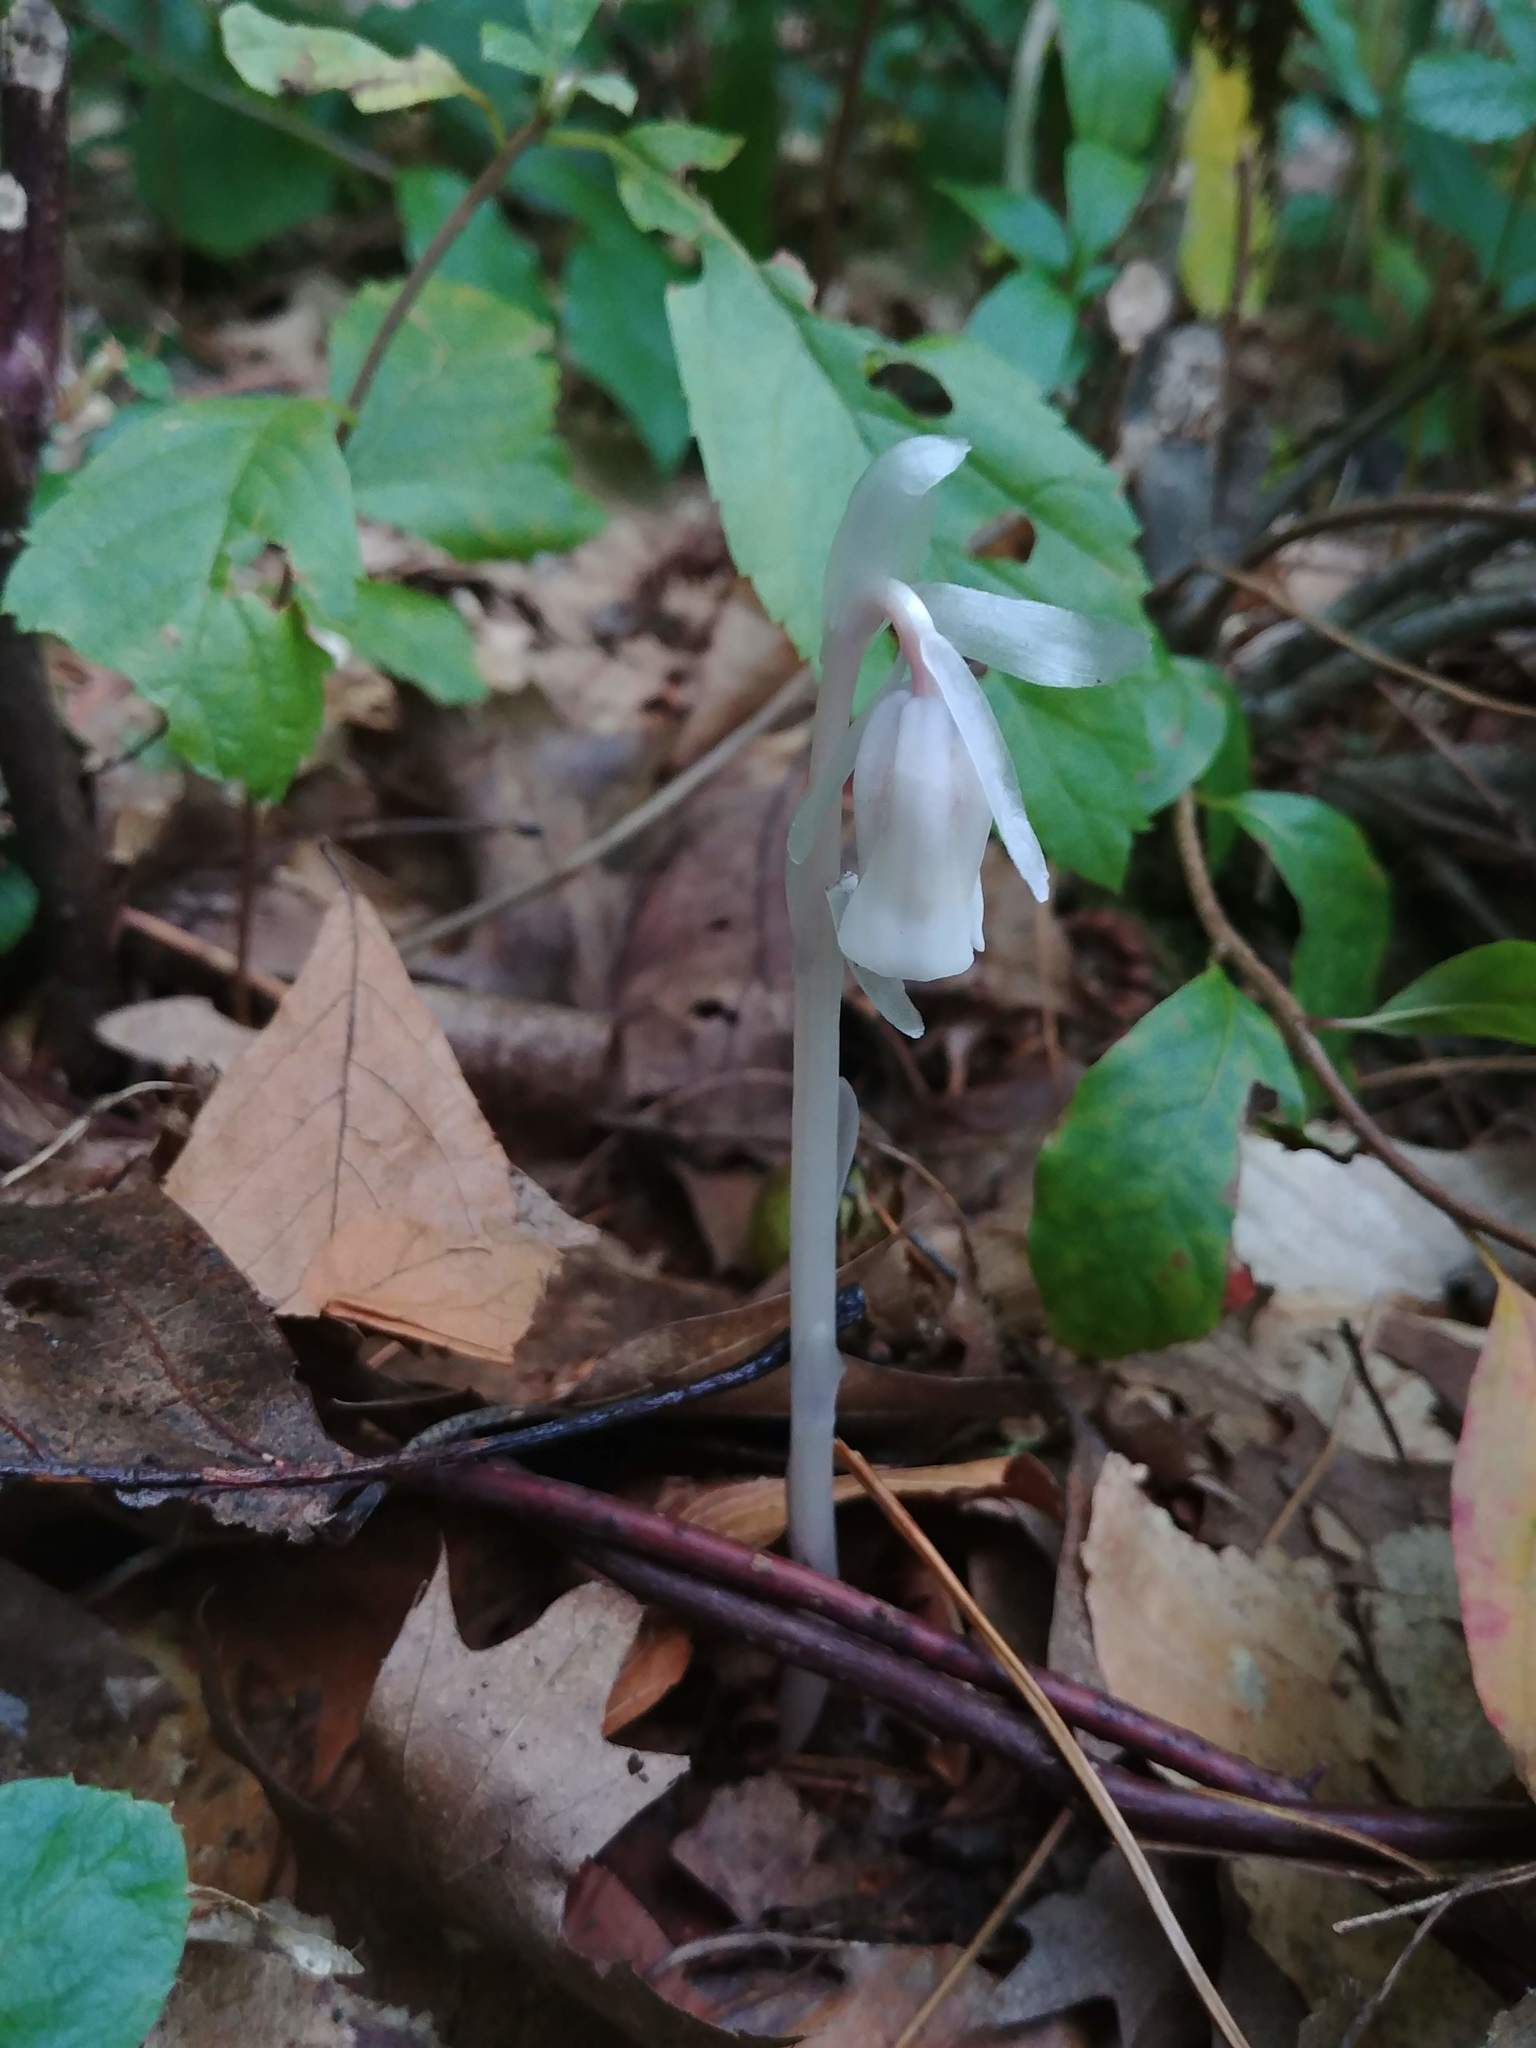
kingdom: Plantae
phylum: Tracheophyta
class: Magnoliopsida
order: Ericales
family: Ericaceae
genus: Monotropa
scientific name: Monotropa uniflora
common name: Convulsion root
